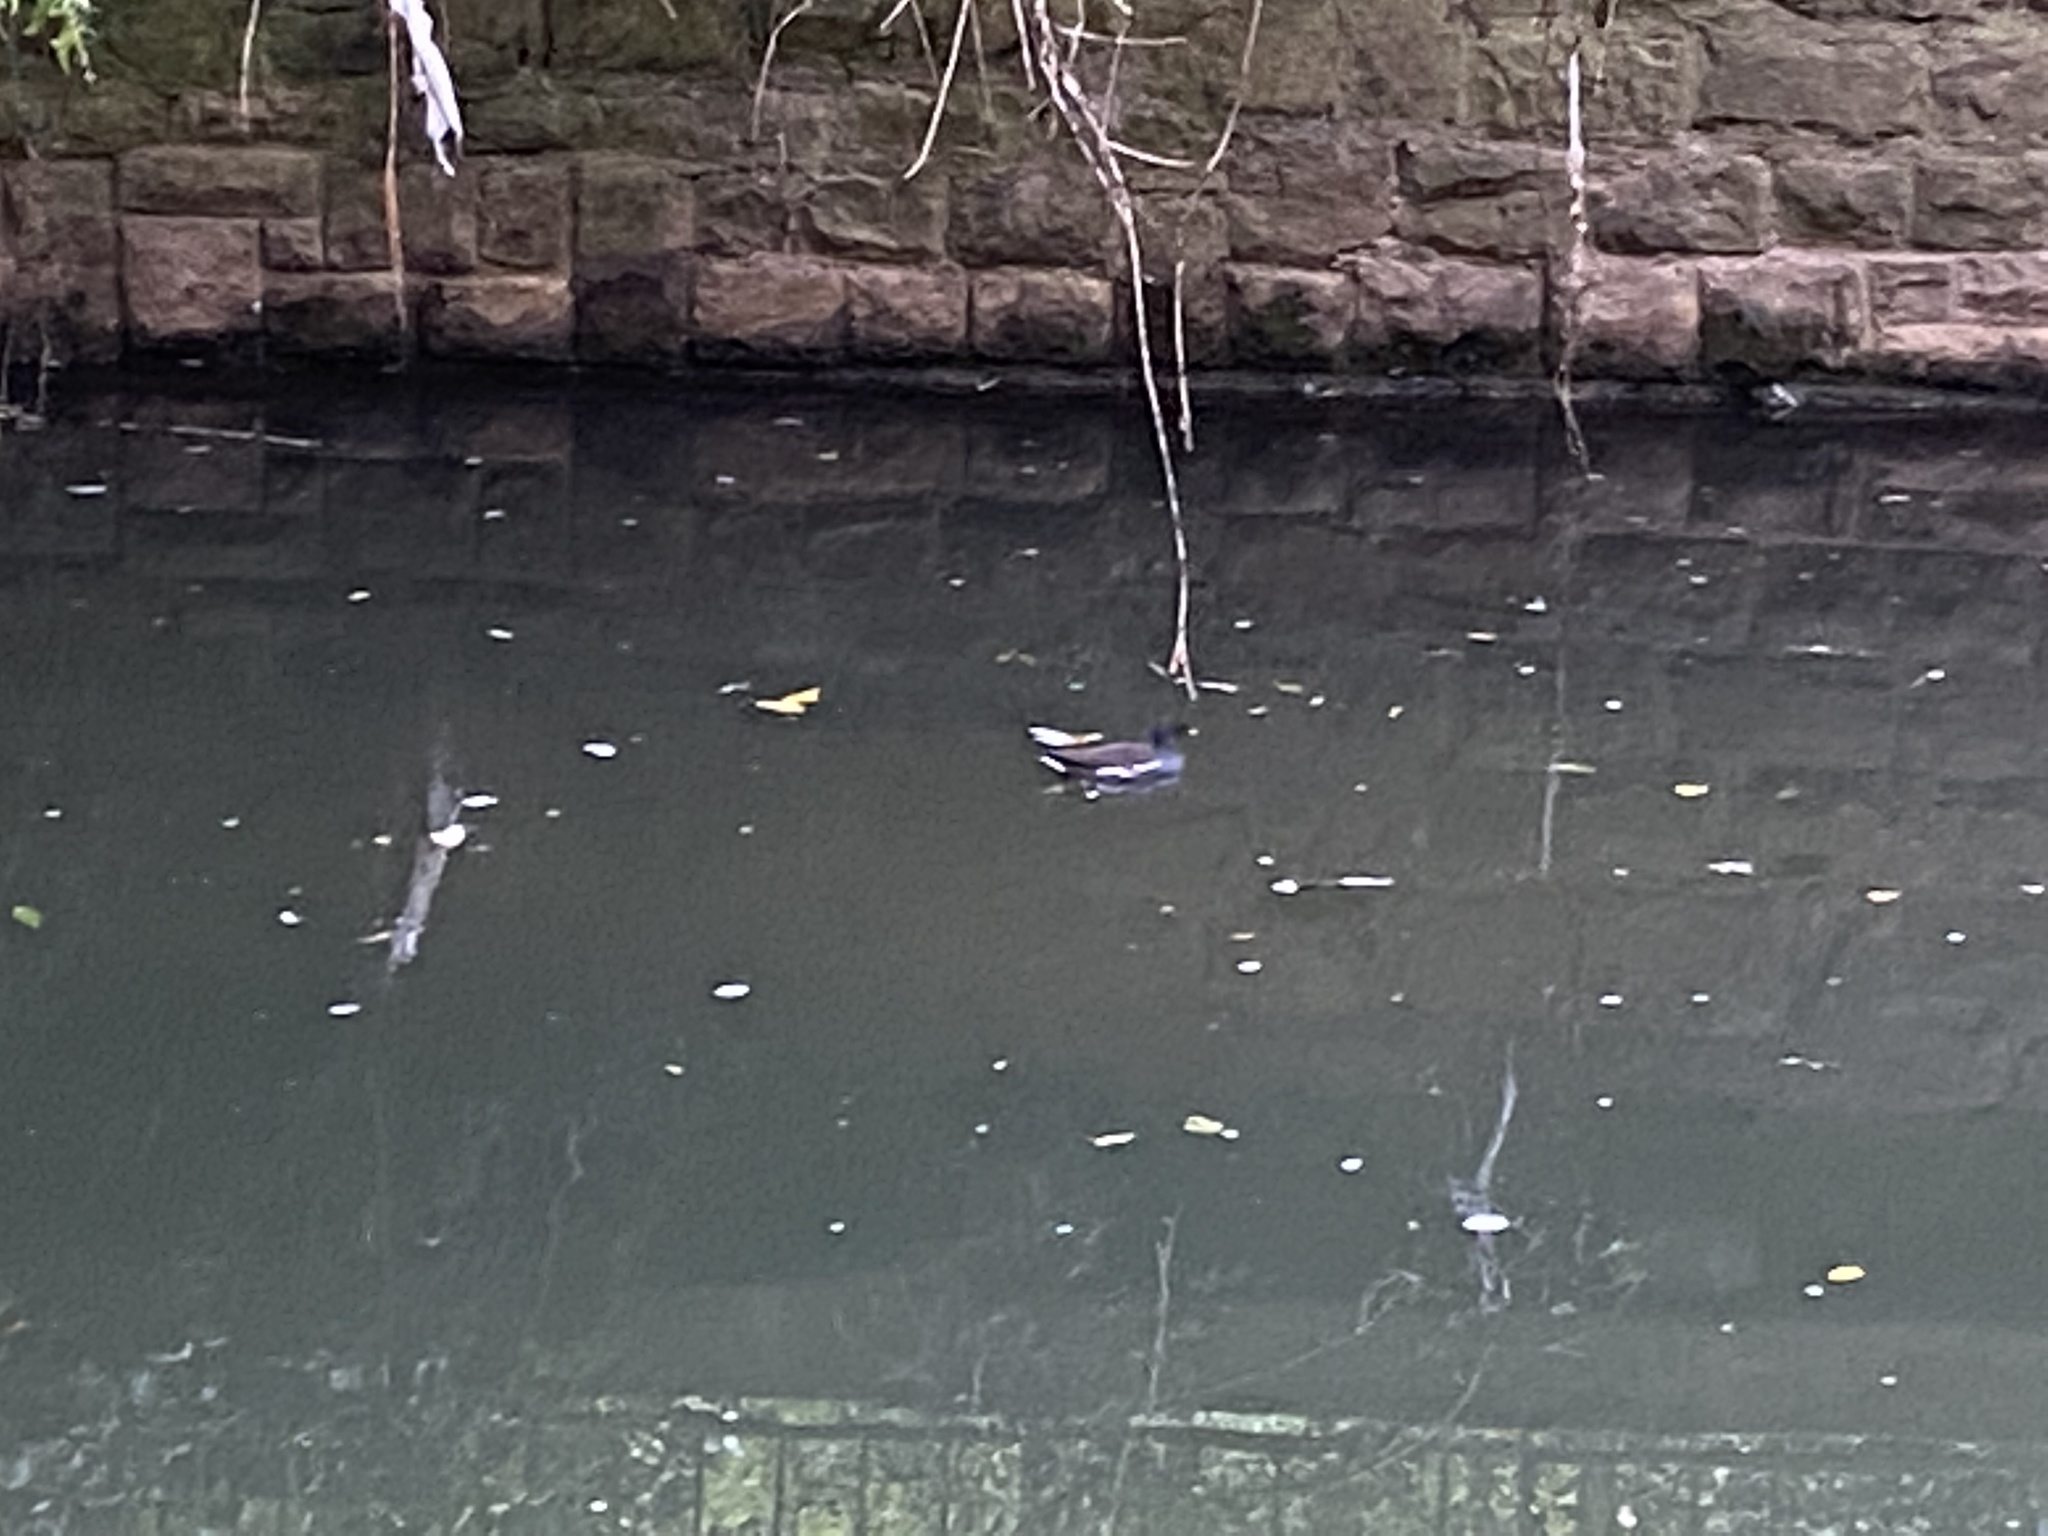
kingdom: Animalia
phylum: Chordata
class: Aves
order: Gruiformes
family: Rallidae
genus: Gallinula
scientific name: Gallinula chloropus
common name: Common moorhen
